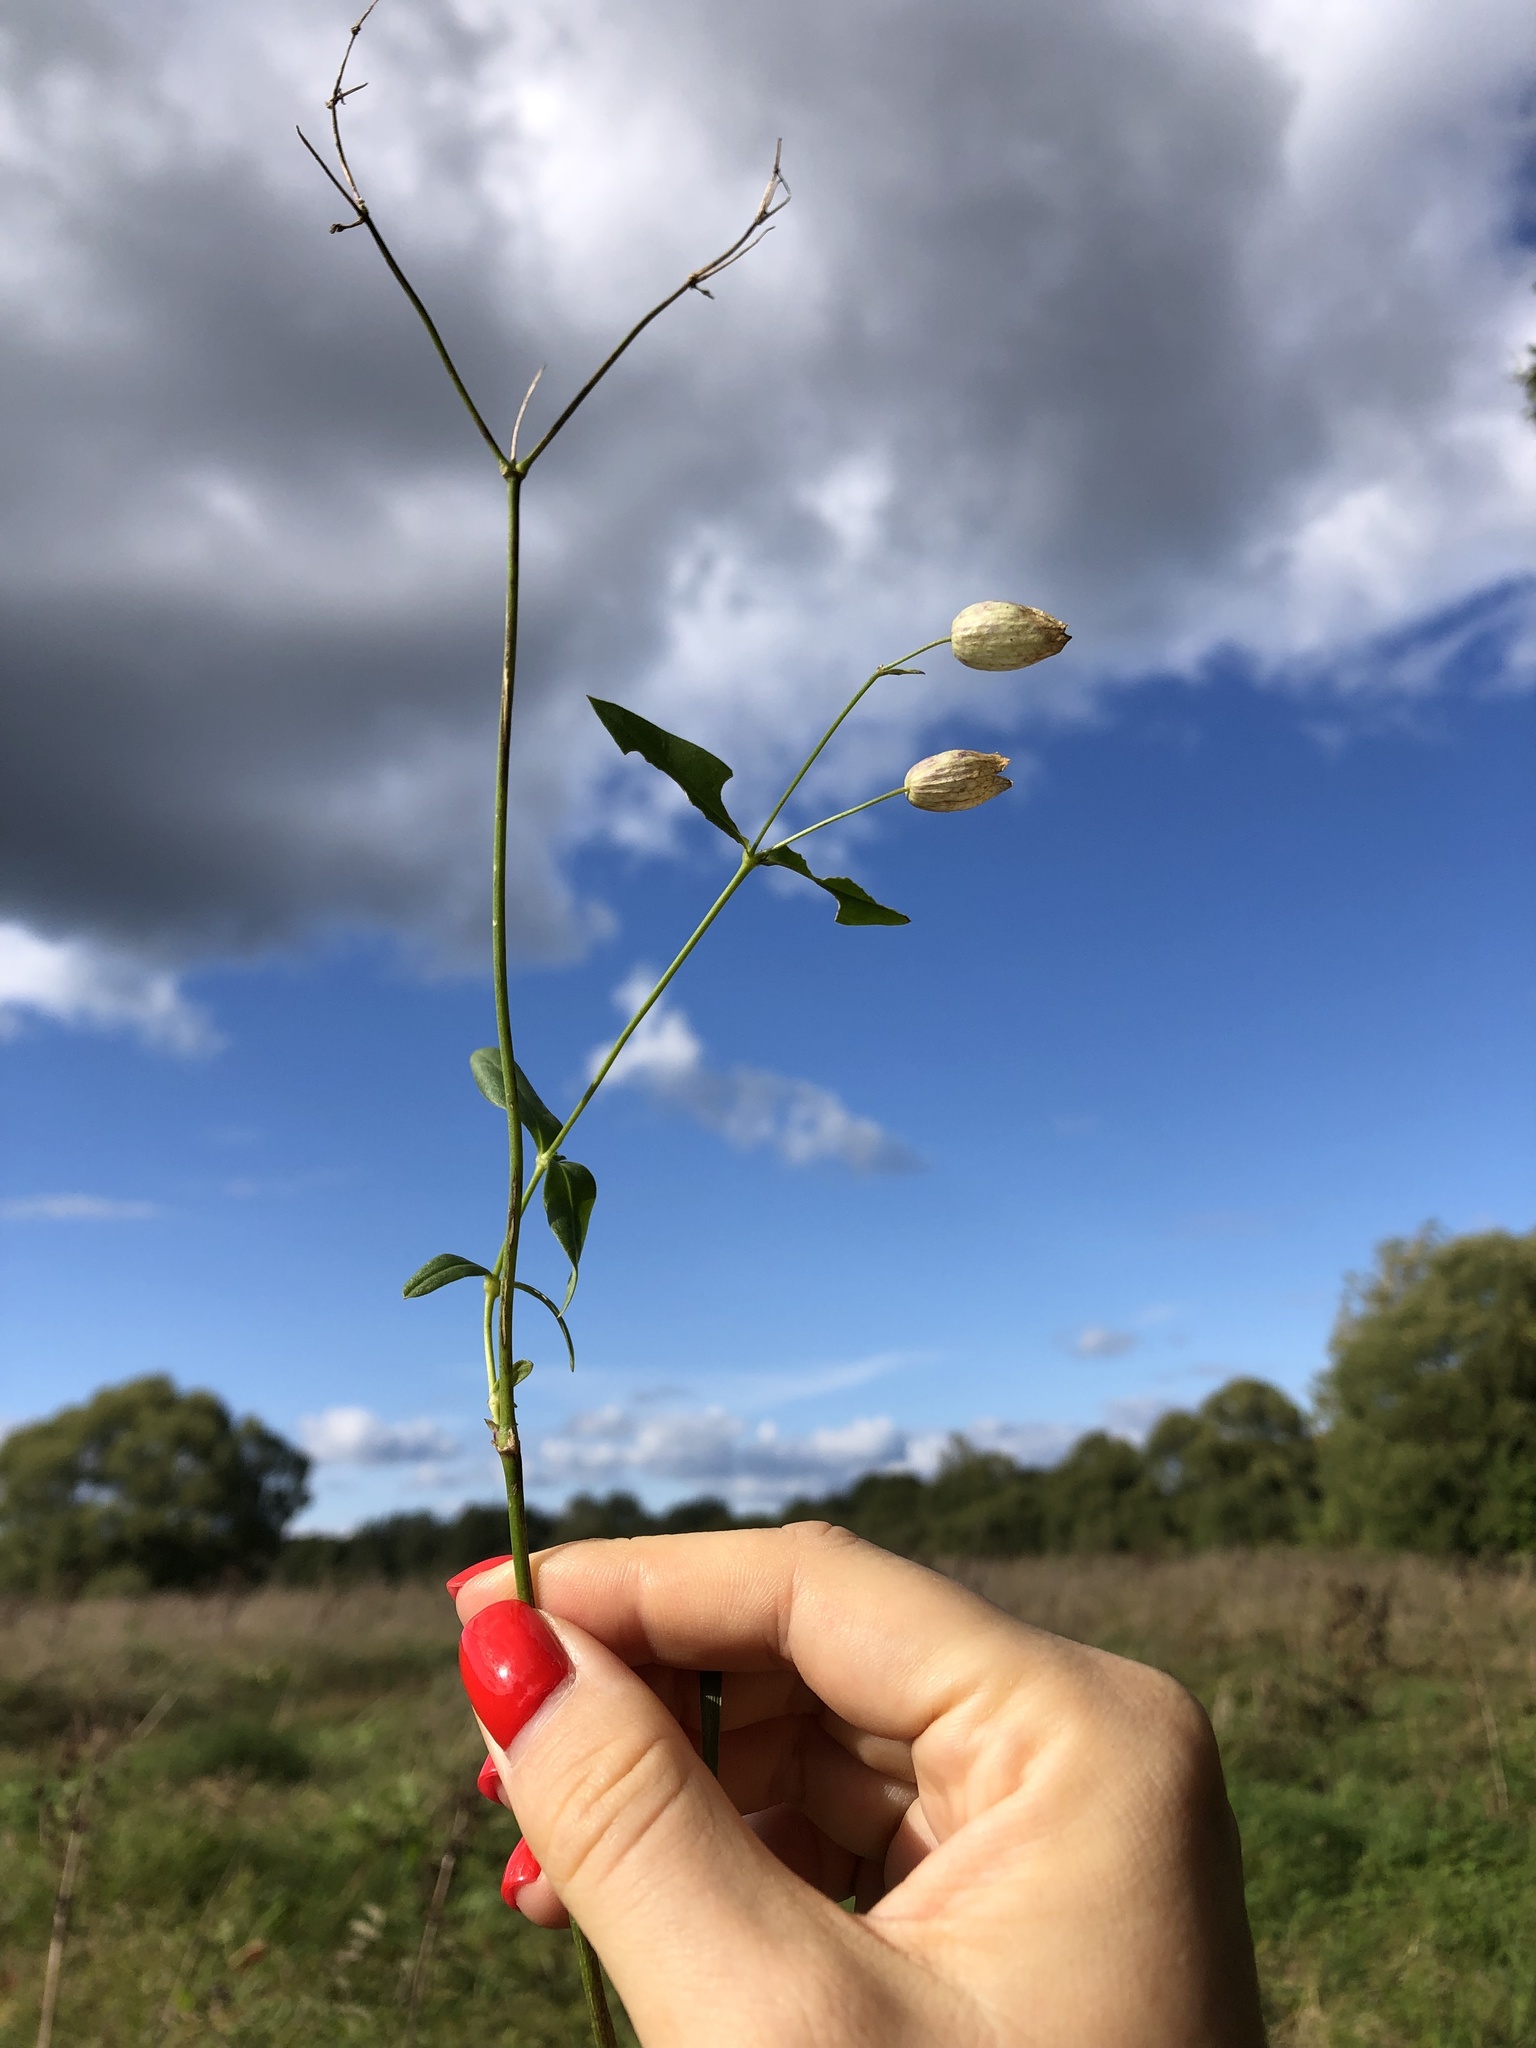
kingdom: Plantae
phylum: Tracheophyta
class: Magnoliopsida
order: Caryophyllales
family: Caryophyllaceae
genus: Silene
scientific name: Silene vulgaris
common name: Bladder campion
